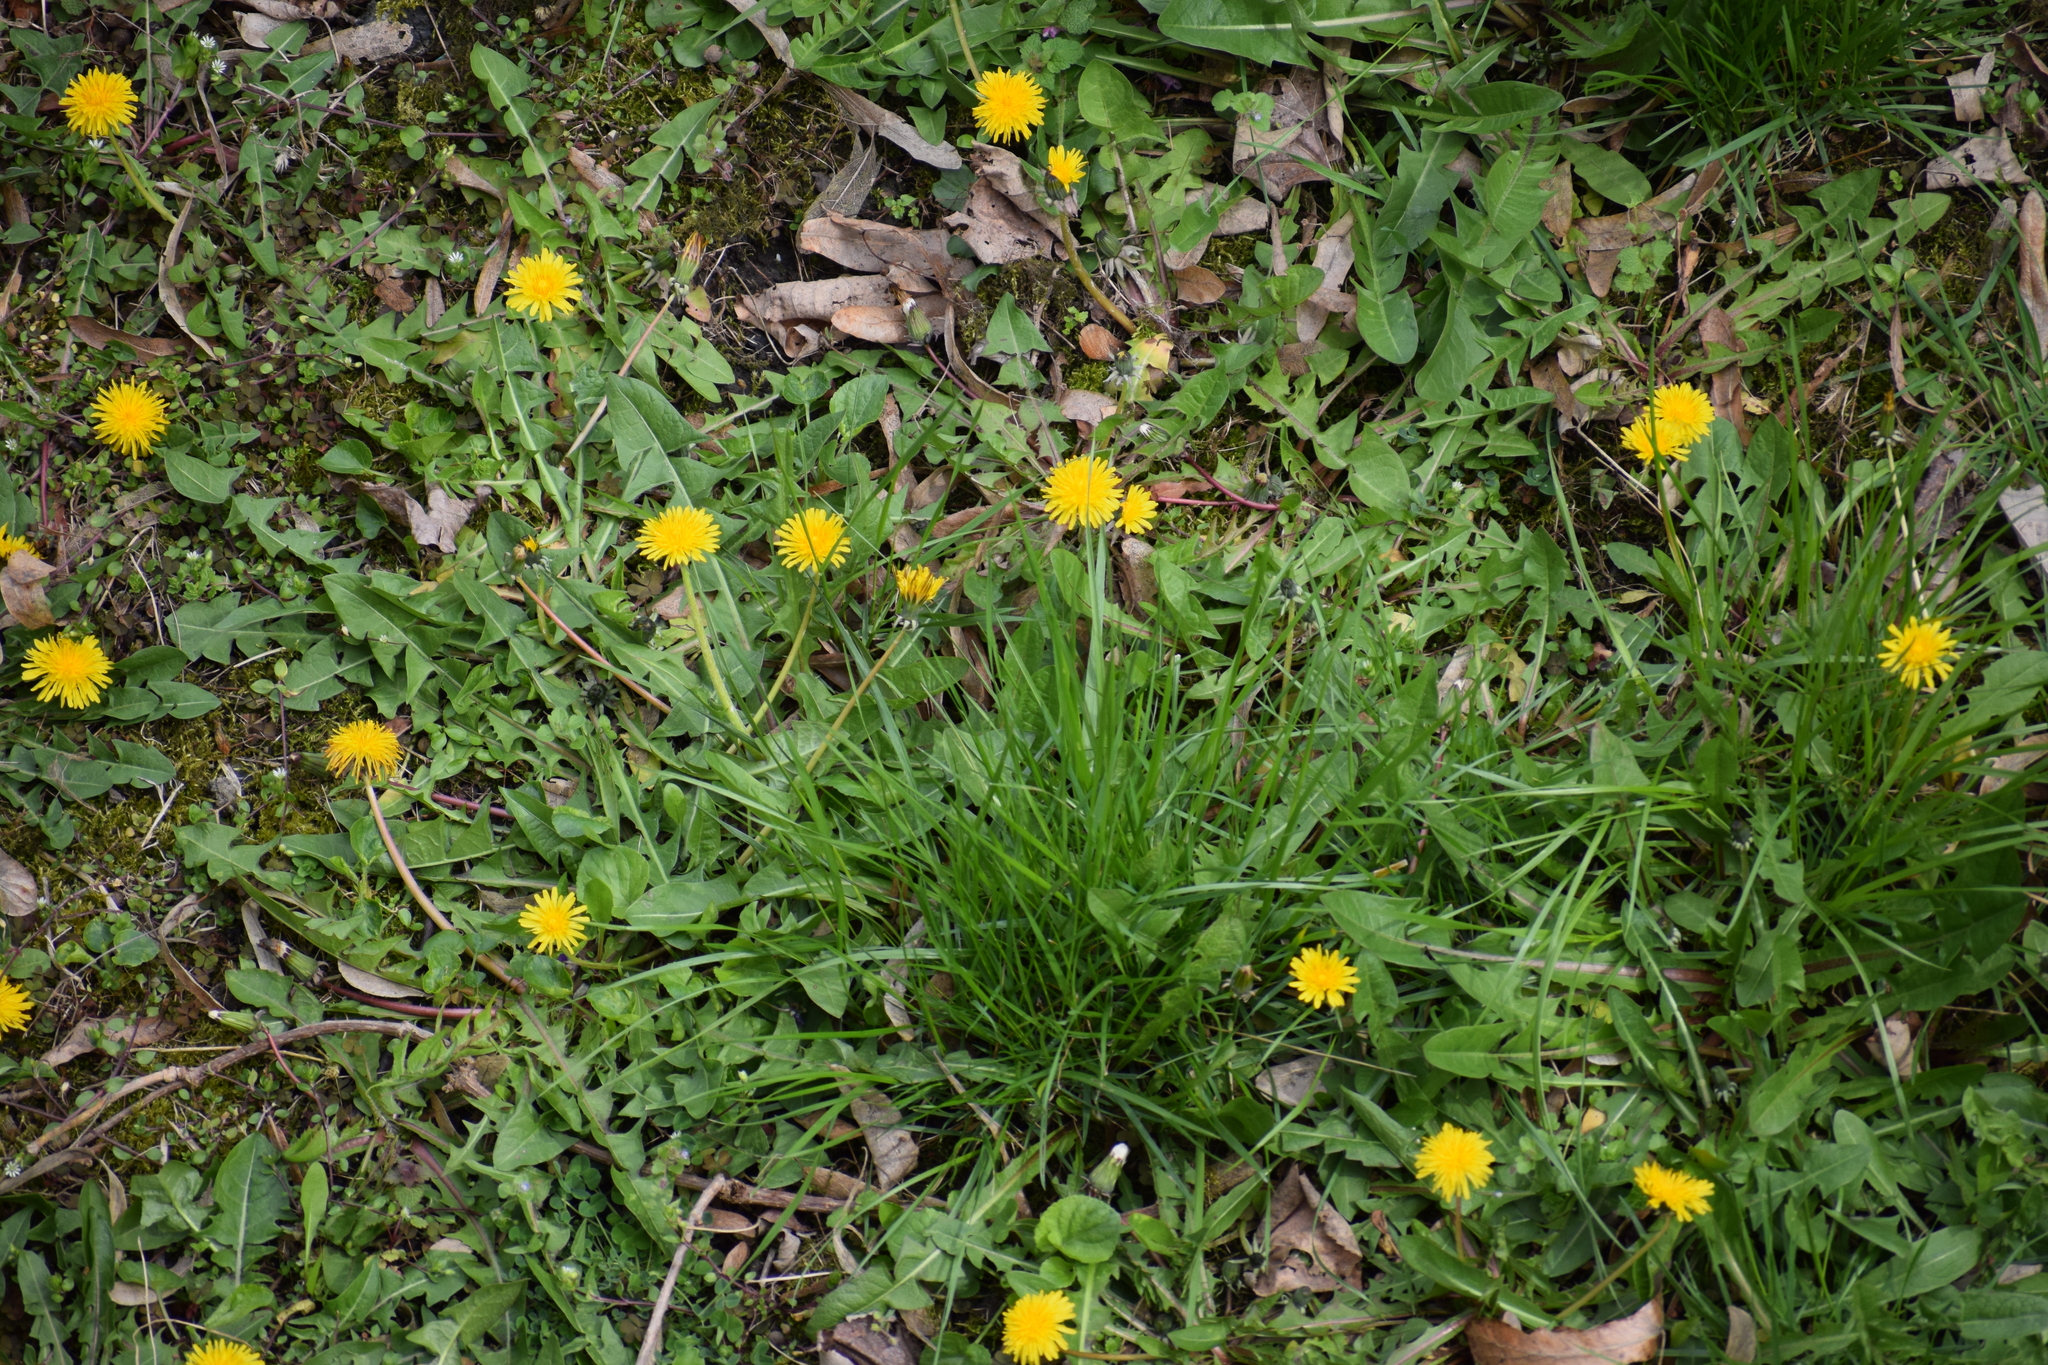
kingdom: Plantae
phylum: Tracheophyta
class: Magnoliopsida
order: Asterales
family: Asteraceae
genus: Taraxacum
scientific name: Taraxacum officinale
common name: Common dandelion
